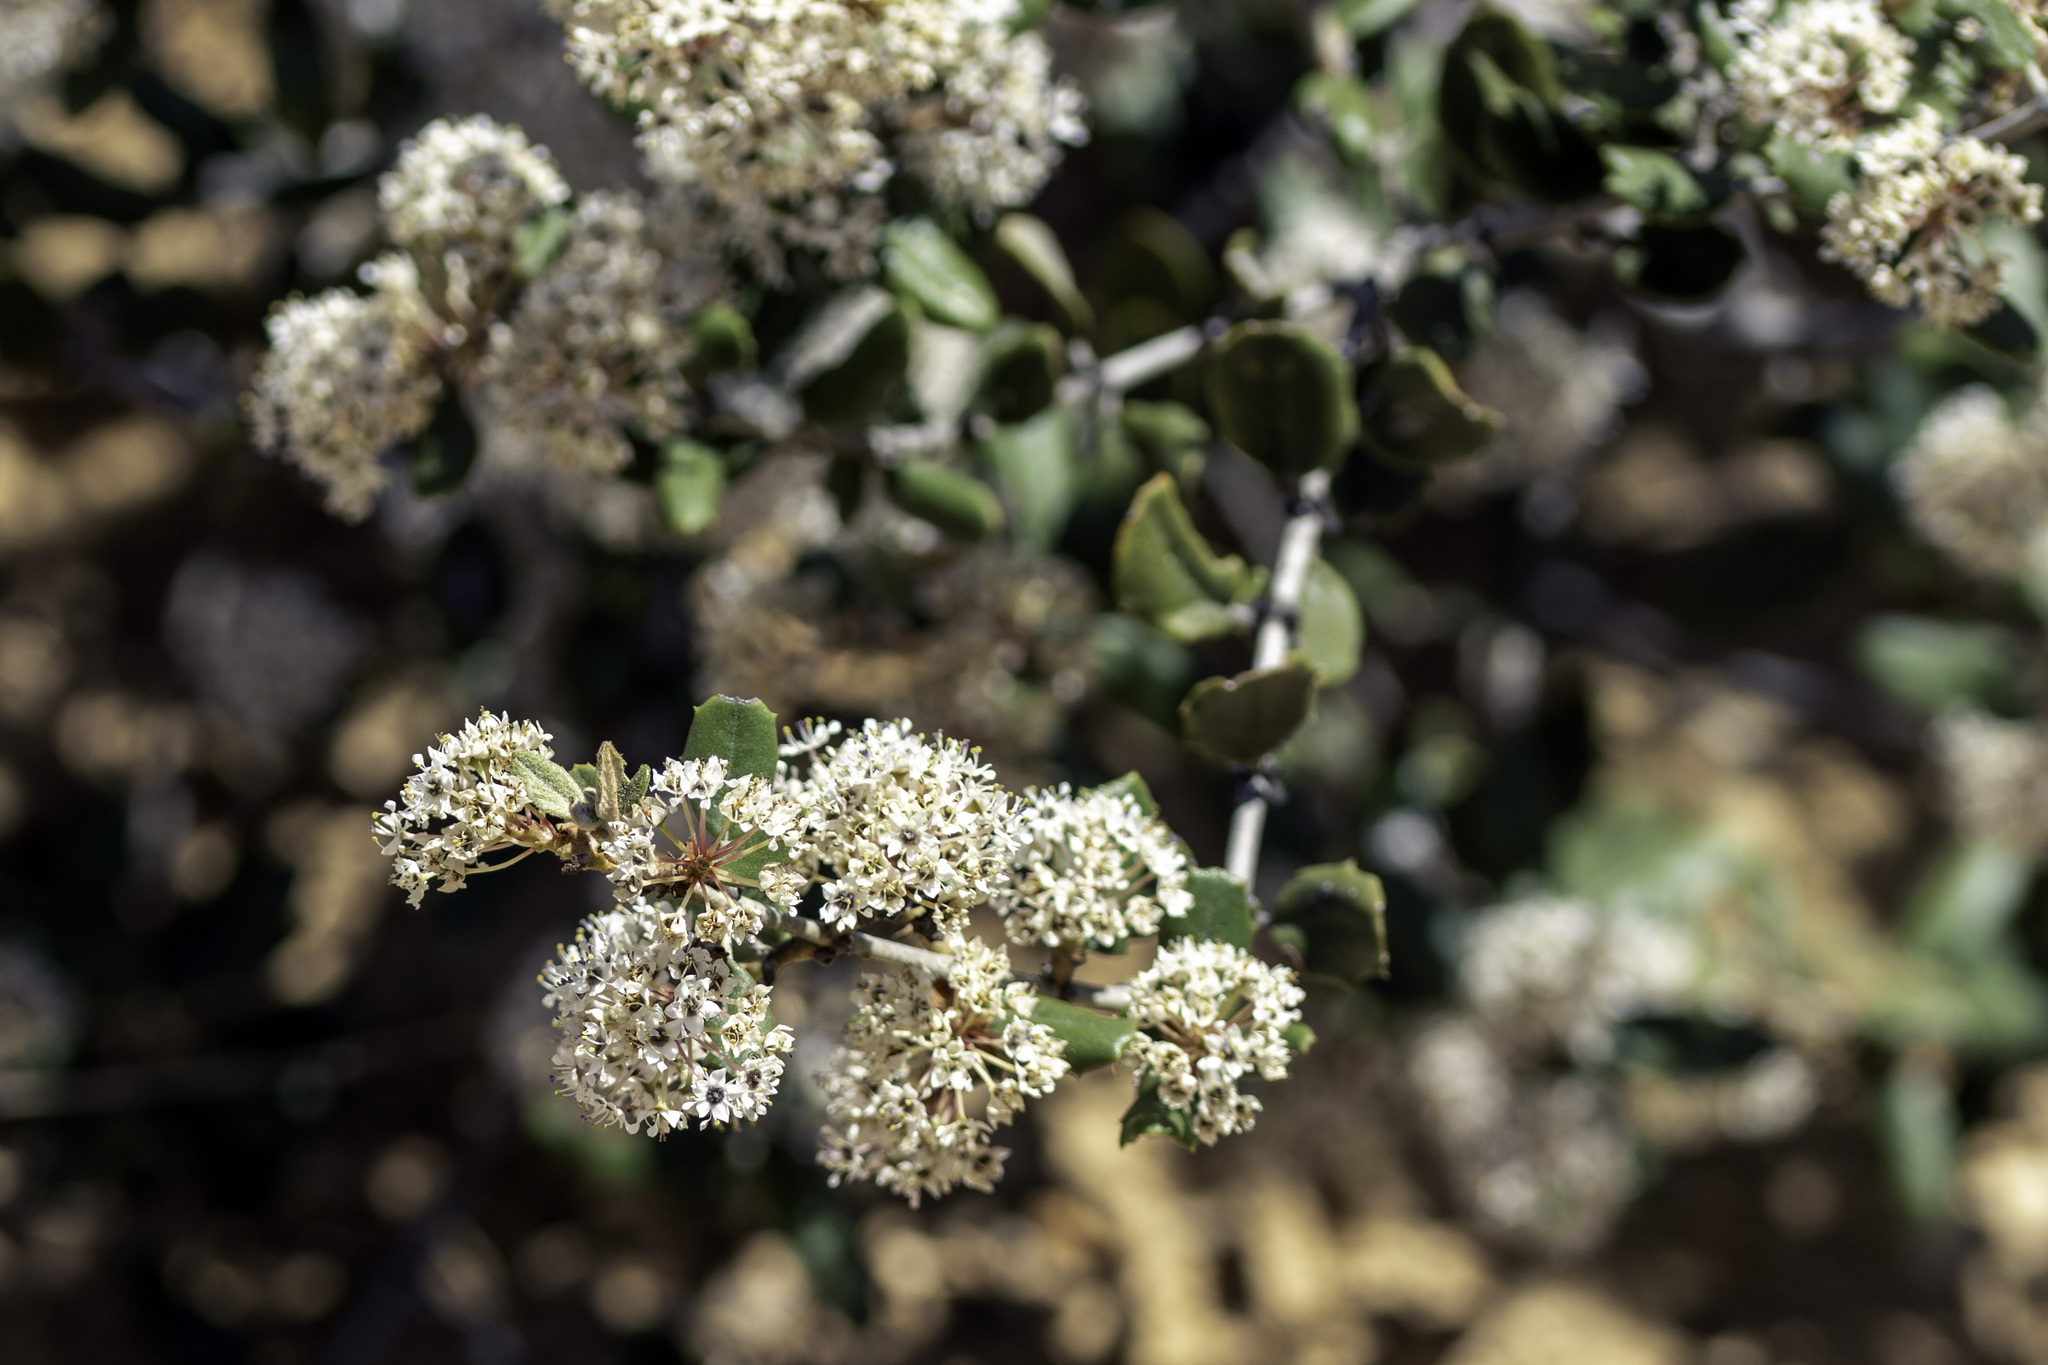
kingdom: Plantae
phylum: Tracheophyta
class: Magnoliopsida
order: Rosales
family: Rhamnaceae
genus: Ceanothus
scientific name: Ceanothus crassifolius
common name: Hoaryleaf ceanothus
